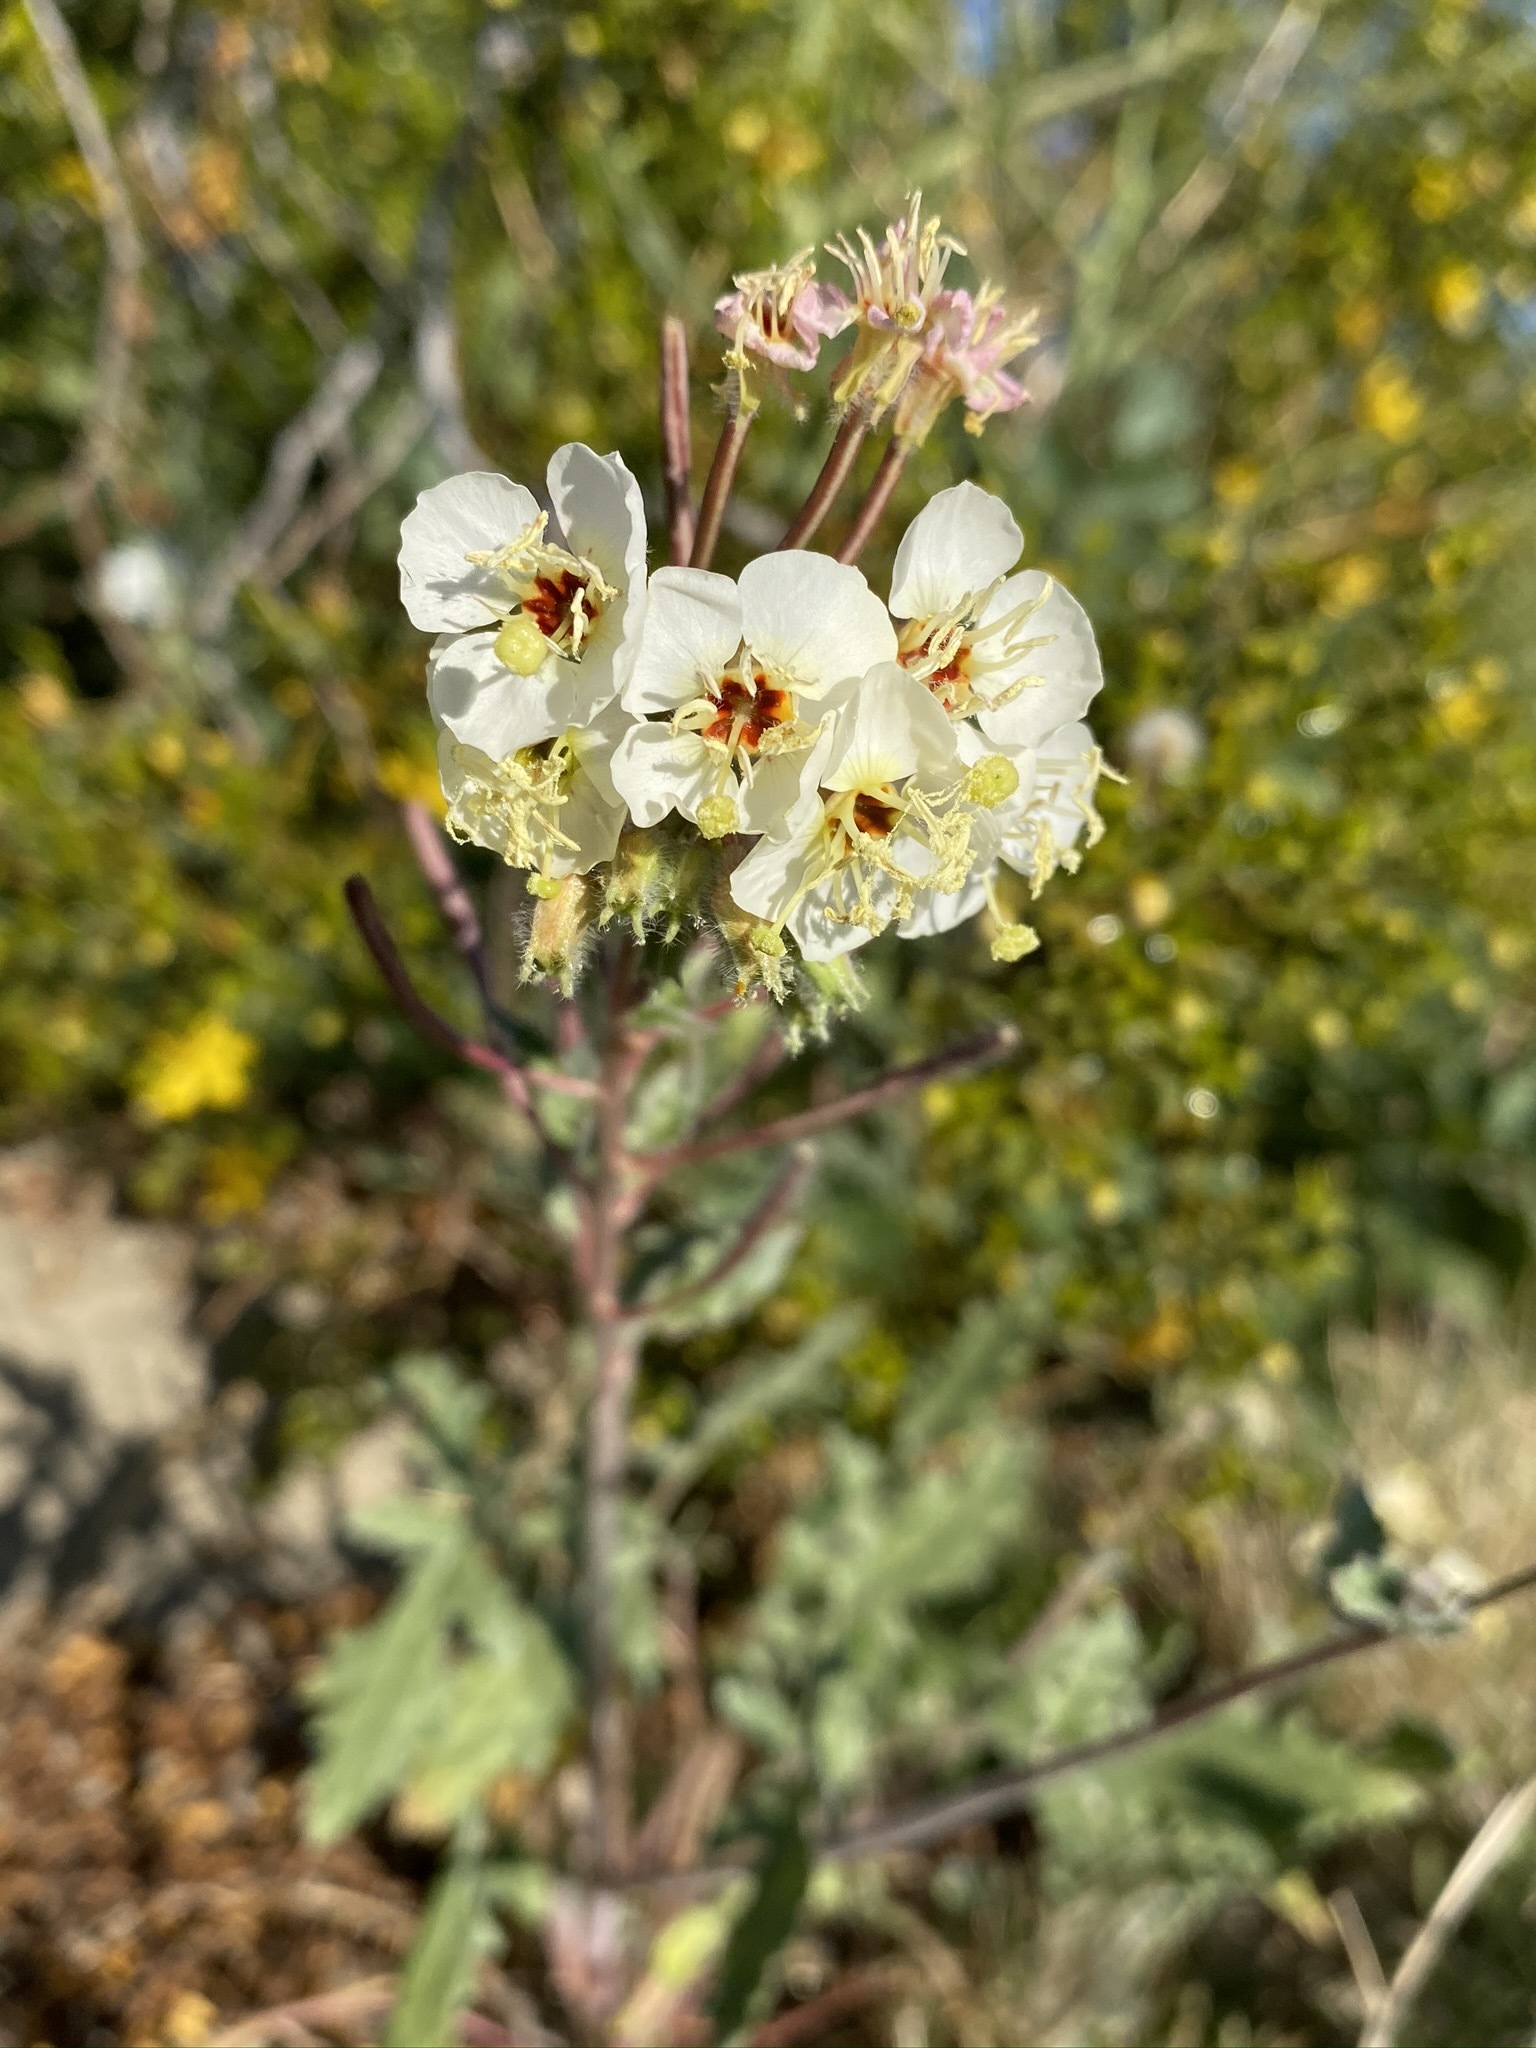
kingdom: Plantae
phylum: Tracheophyta
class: Magnoliopsida
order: Myrtales
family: Onagraceae
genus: Chylismia
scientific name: Chylismia claviformis
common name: Browneyes
